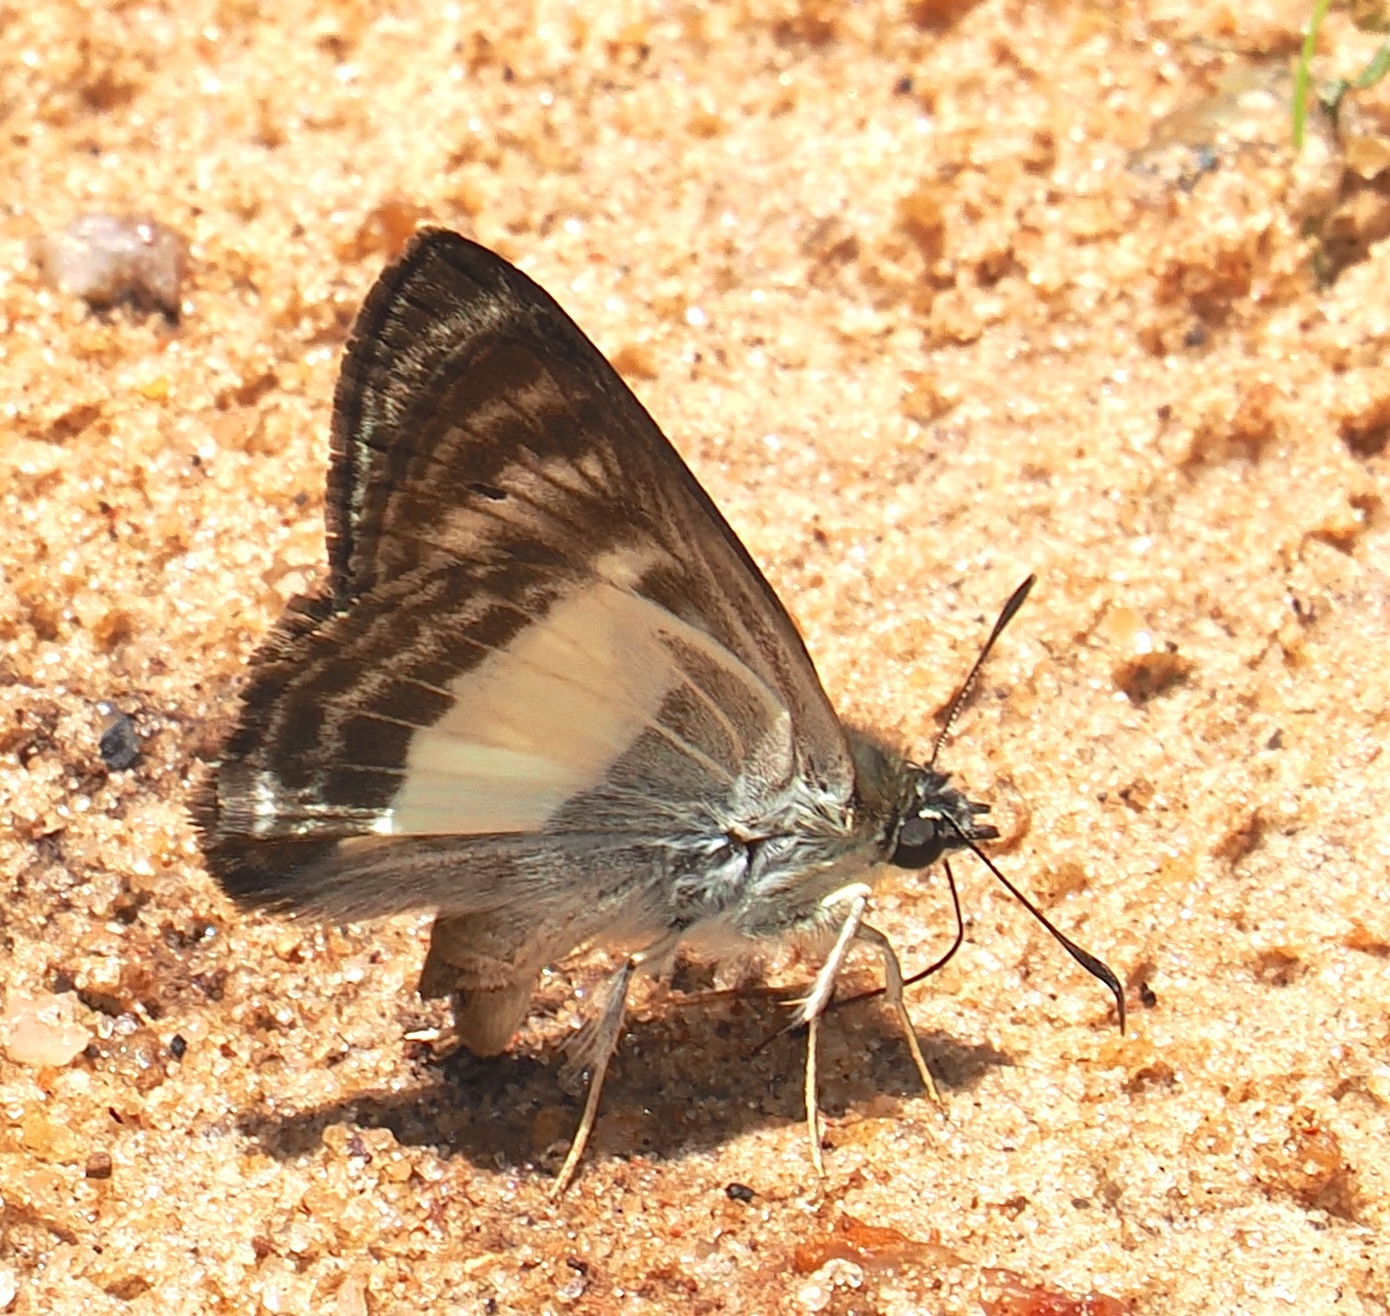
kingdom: Animalia
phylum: Arthropoda
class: Insecta
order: Lepidoptera
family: Hesperiidae
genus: Sophista
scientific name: Sophista aristoteles
